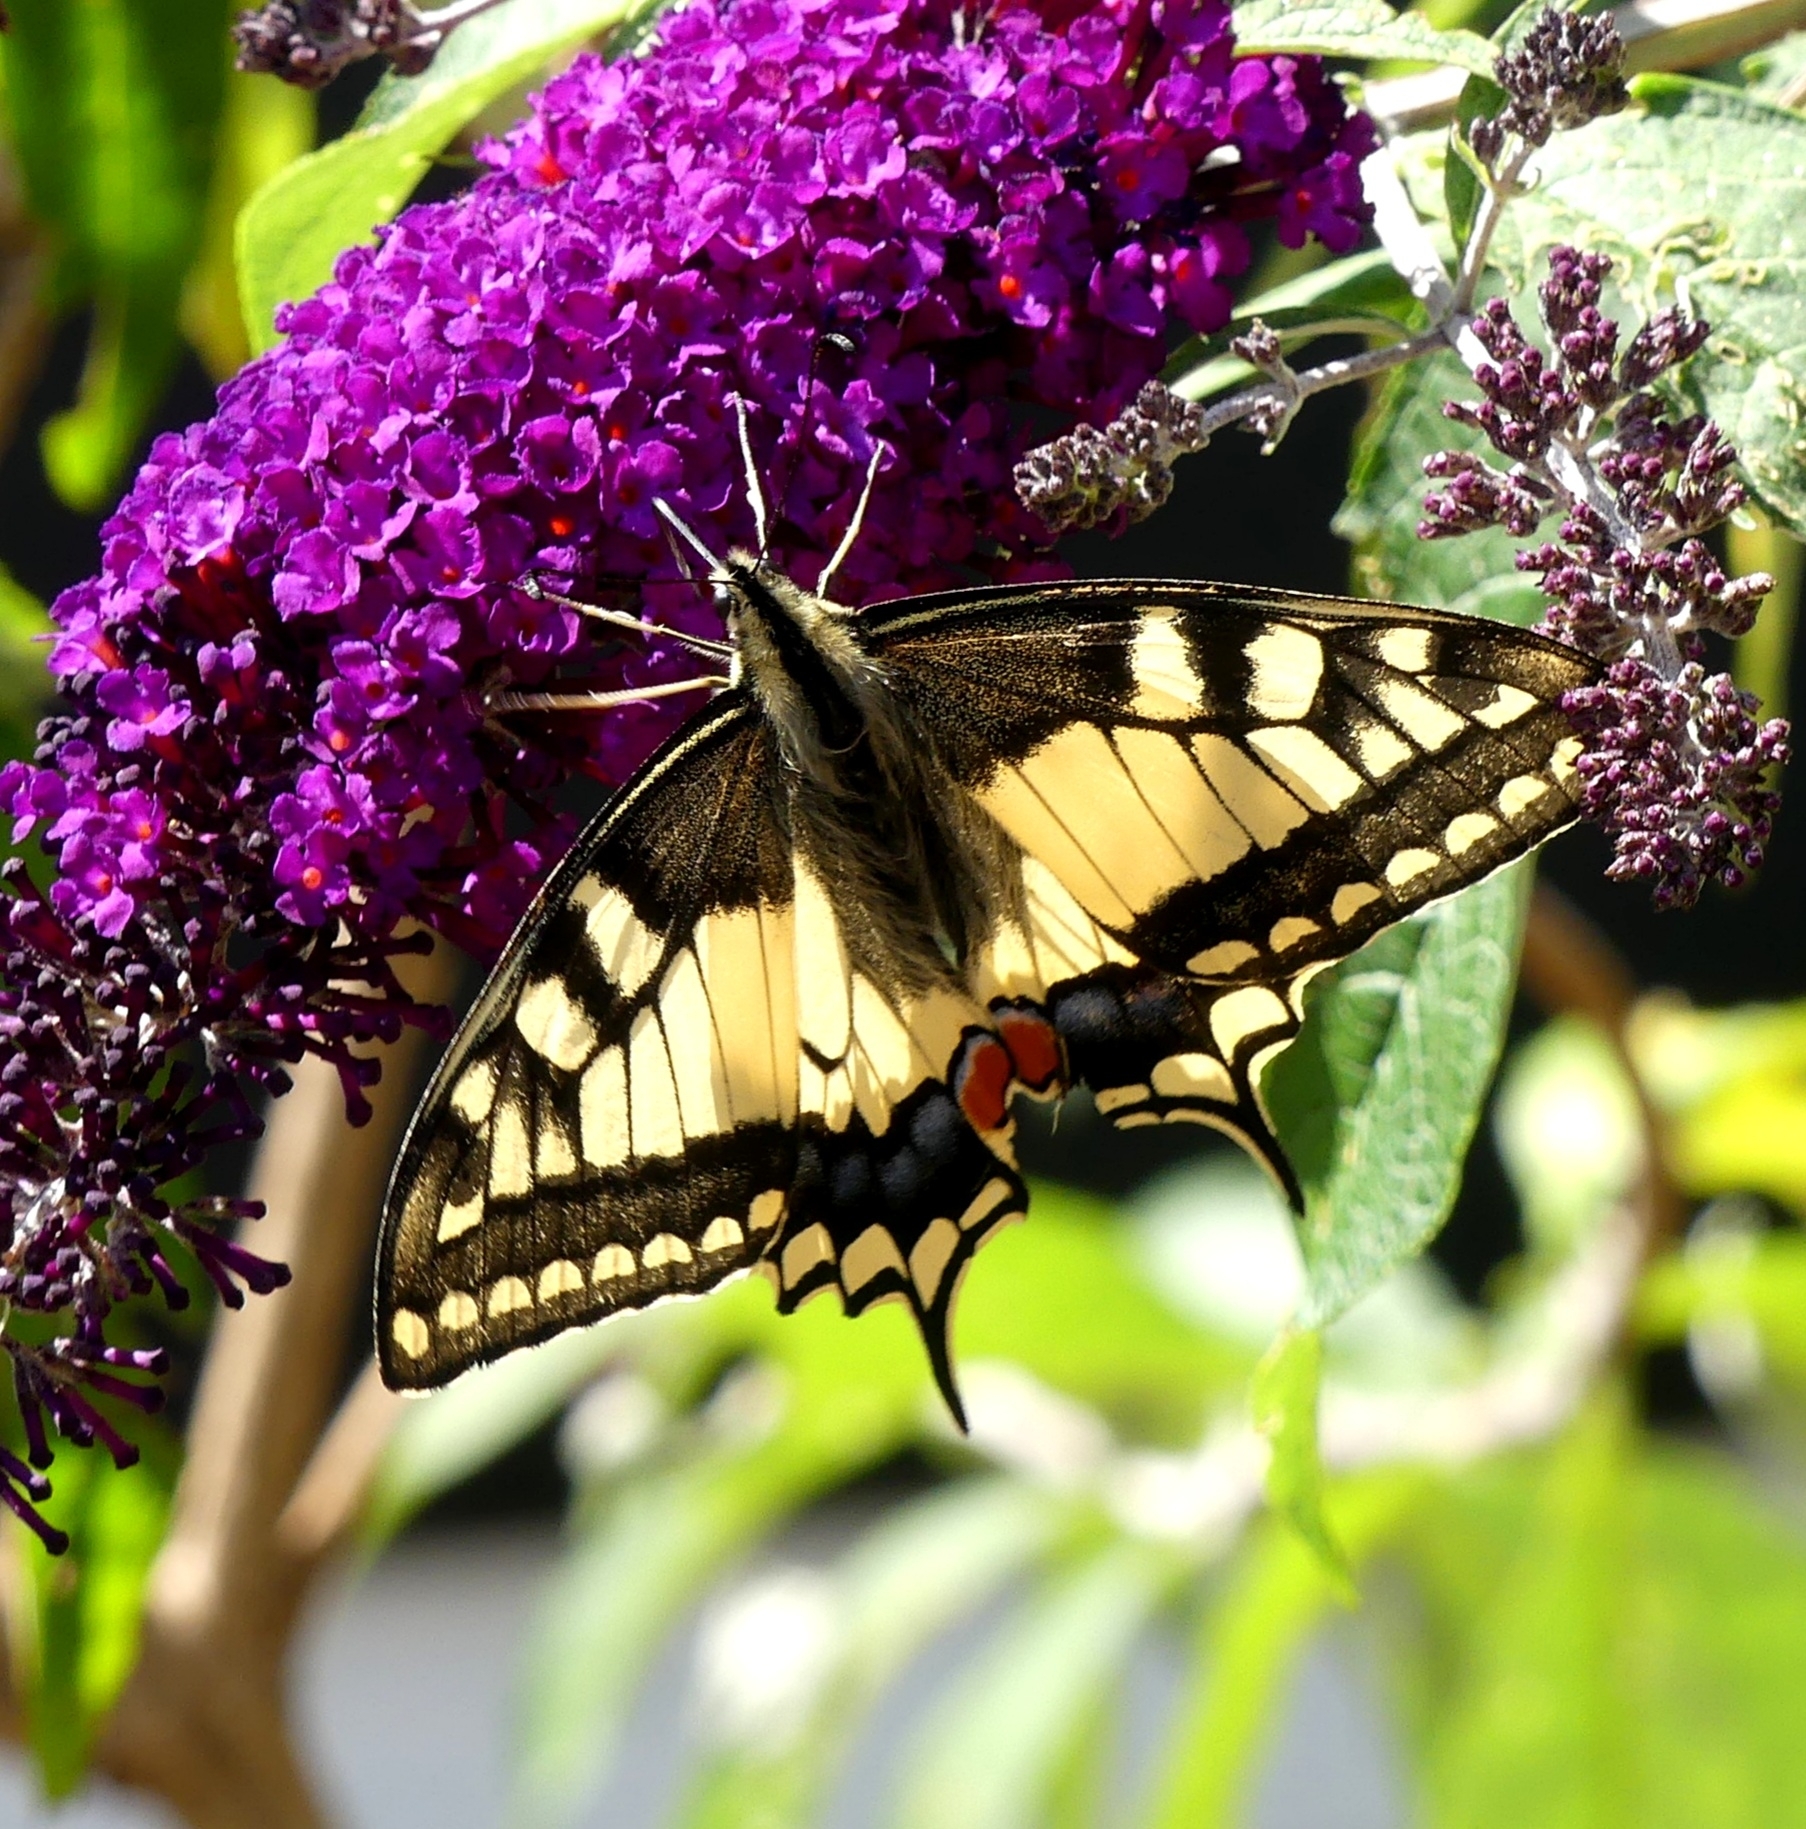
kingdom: Animalia
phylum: Arthropoda
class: Insecta
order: Lepidoptera
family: Papilionidae
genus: Papilio
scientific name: Papilio machaon
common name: Swallowtail
